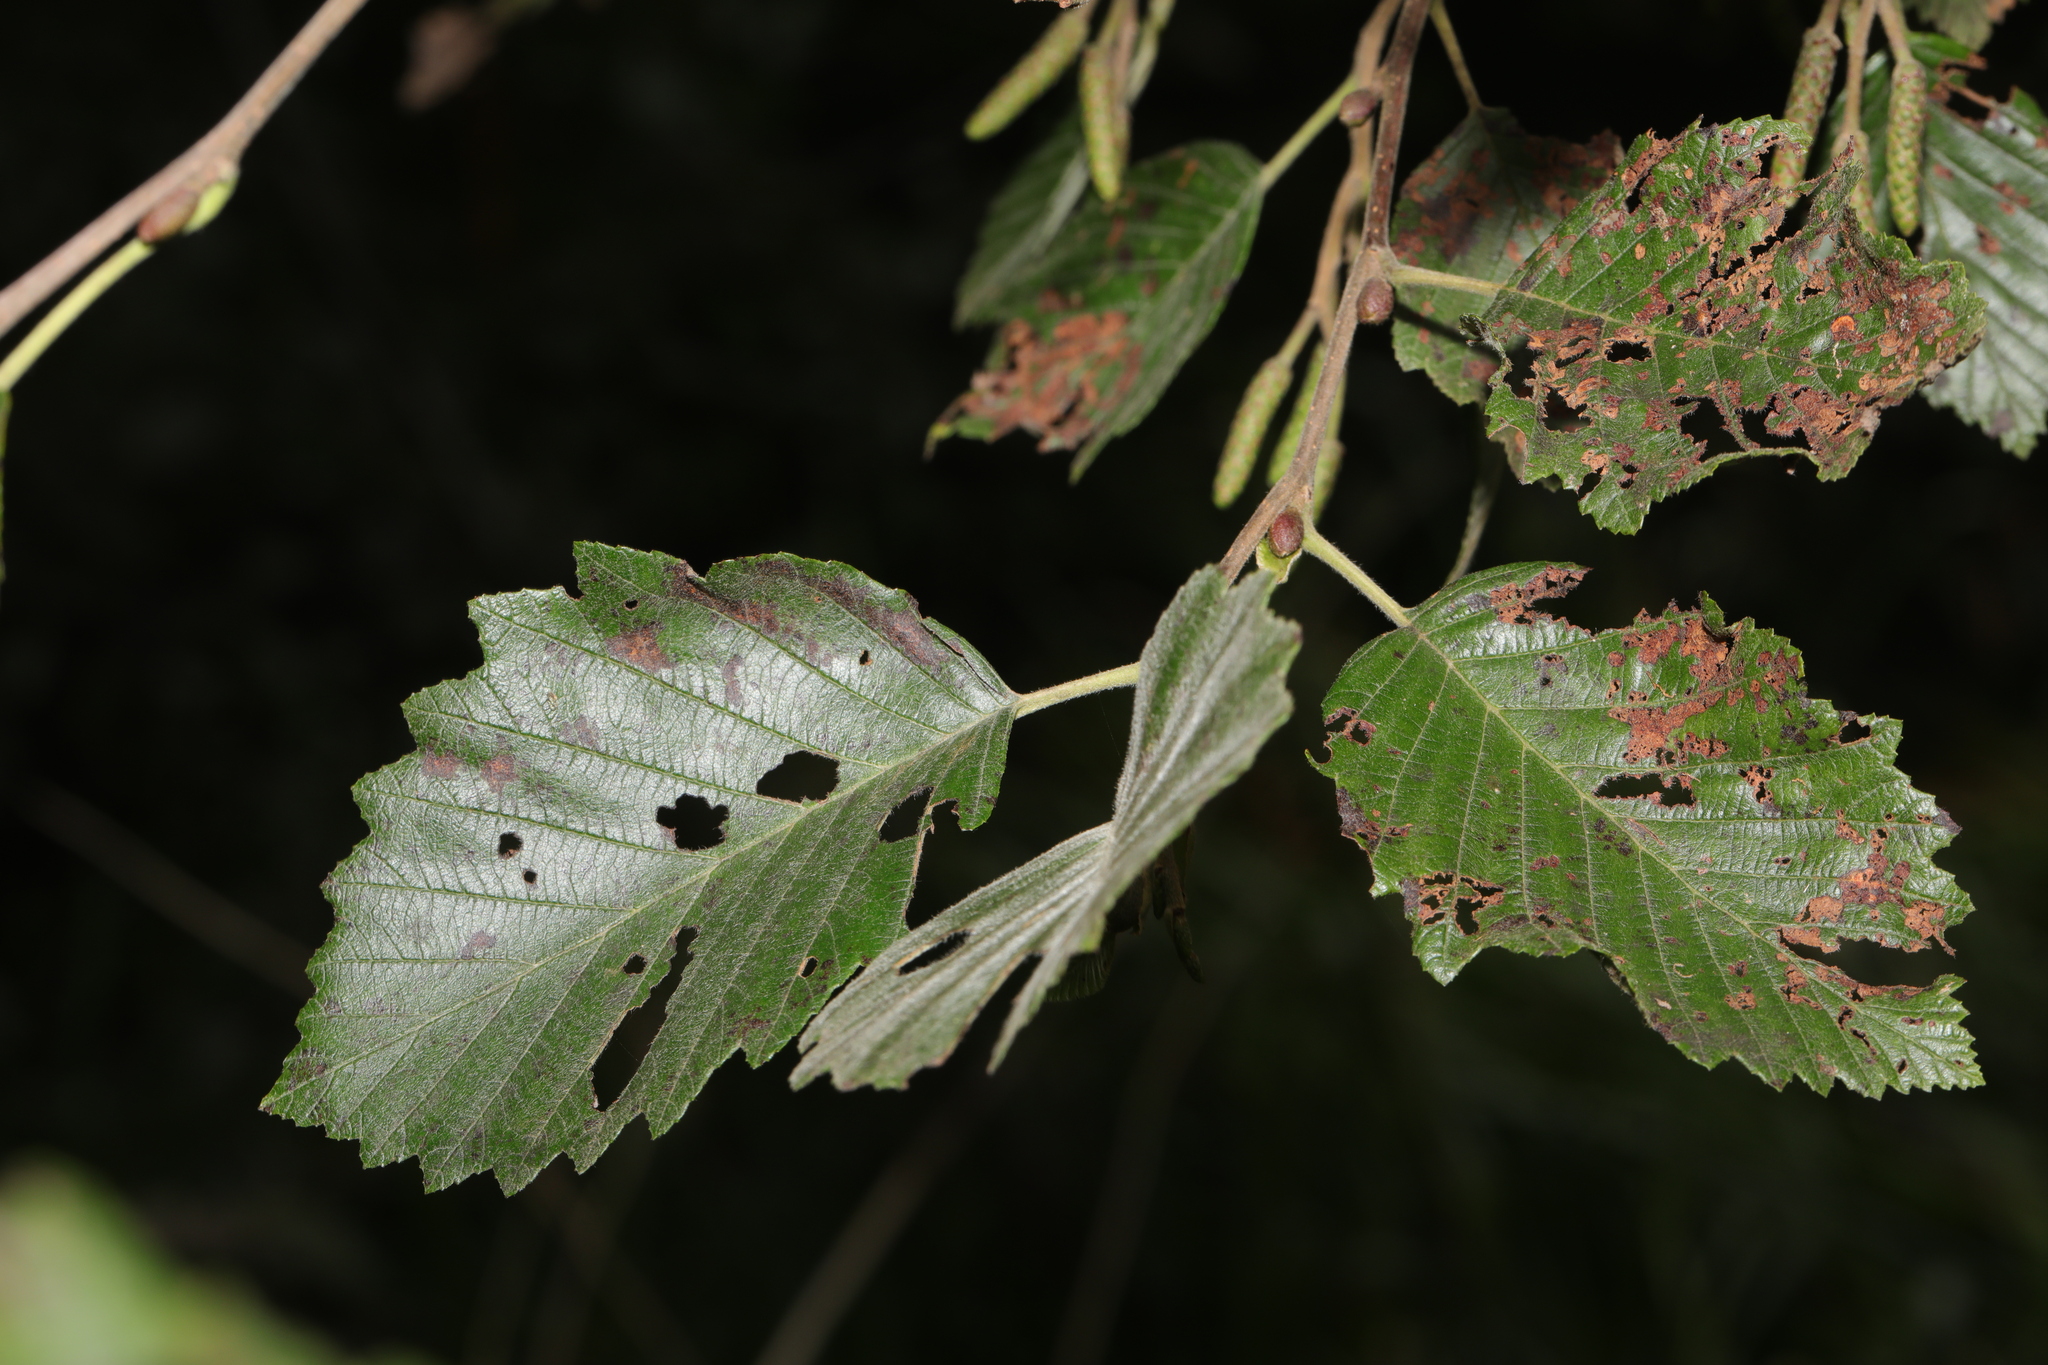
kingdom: Plantae
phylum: Tracheophyta
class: Magnoliopsida
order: Fagales
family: Betulaceae
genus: Alnus
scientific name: Alnus incana
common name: Grey alder
